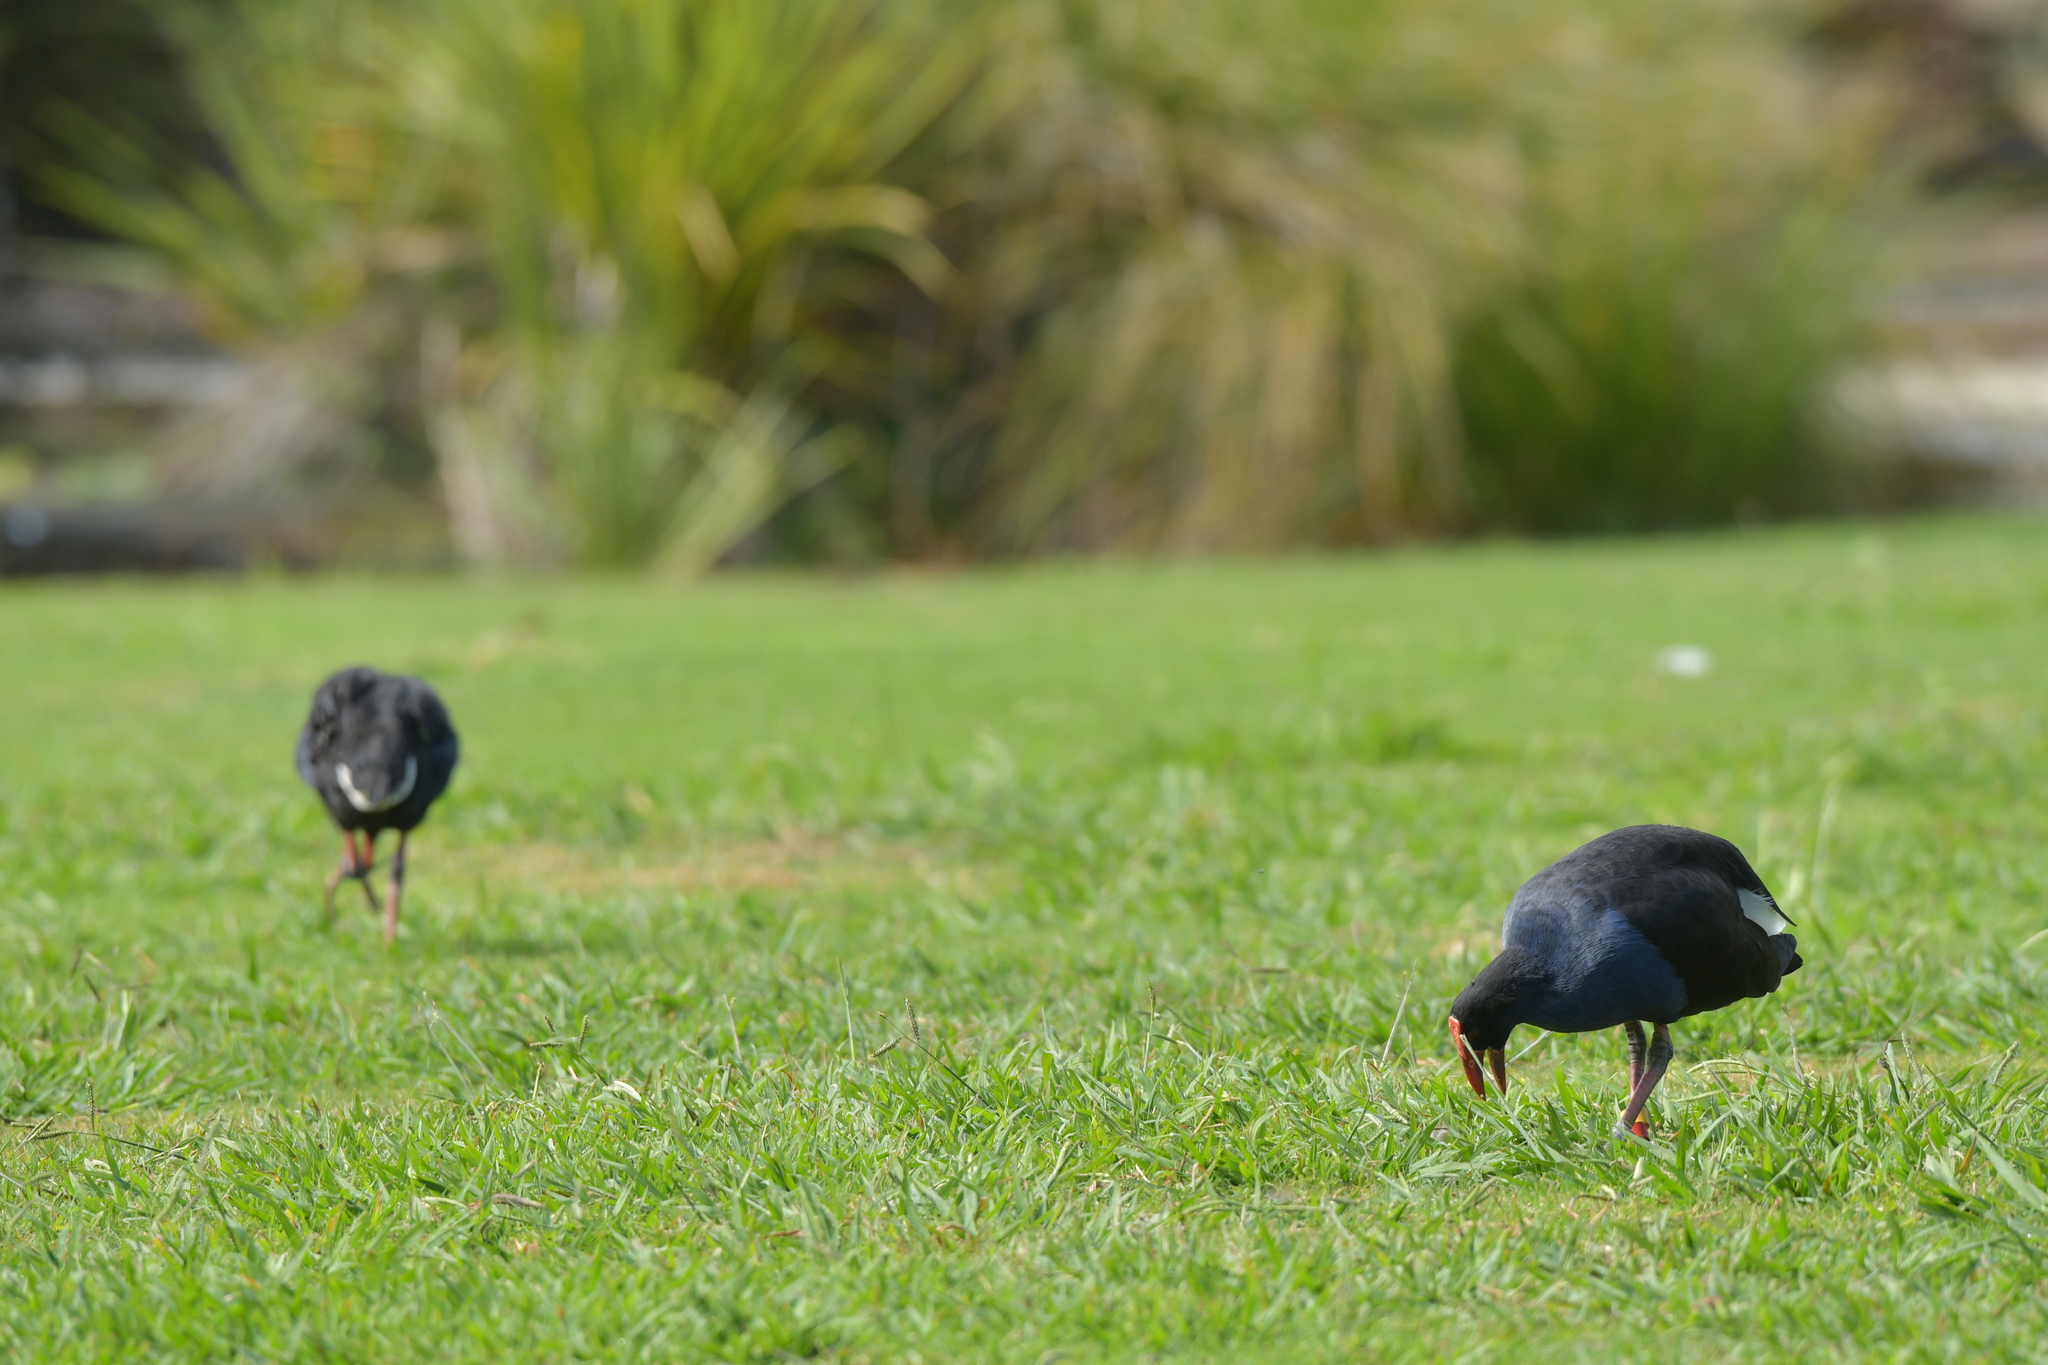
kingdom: Animalia
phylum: Chordata
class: Aves
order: Gruiformes
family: Rallidae
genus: Porphyrio
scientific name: Porphyrio melanotus
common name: Australasian swamphen
